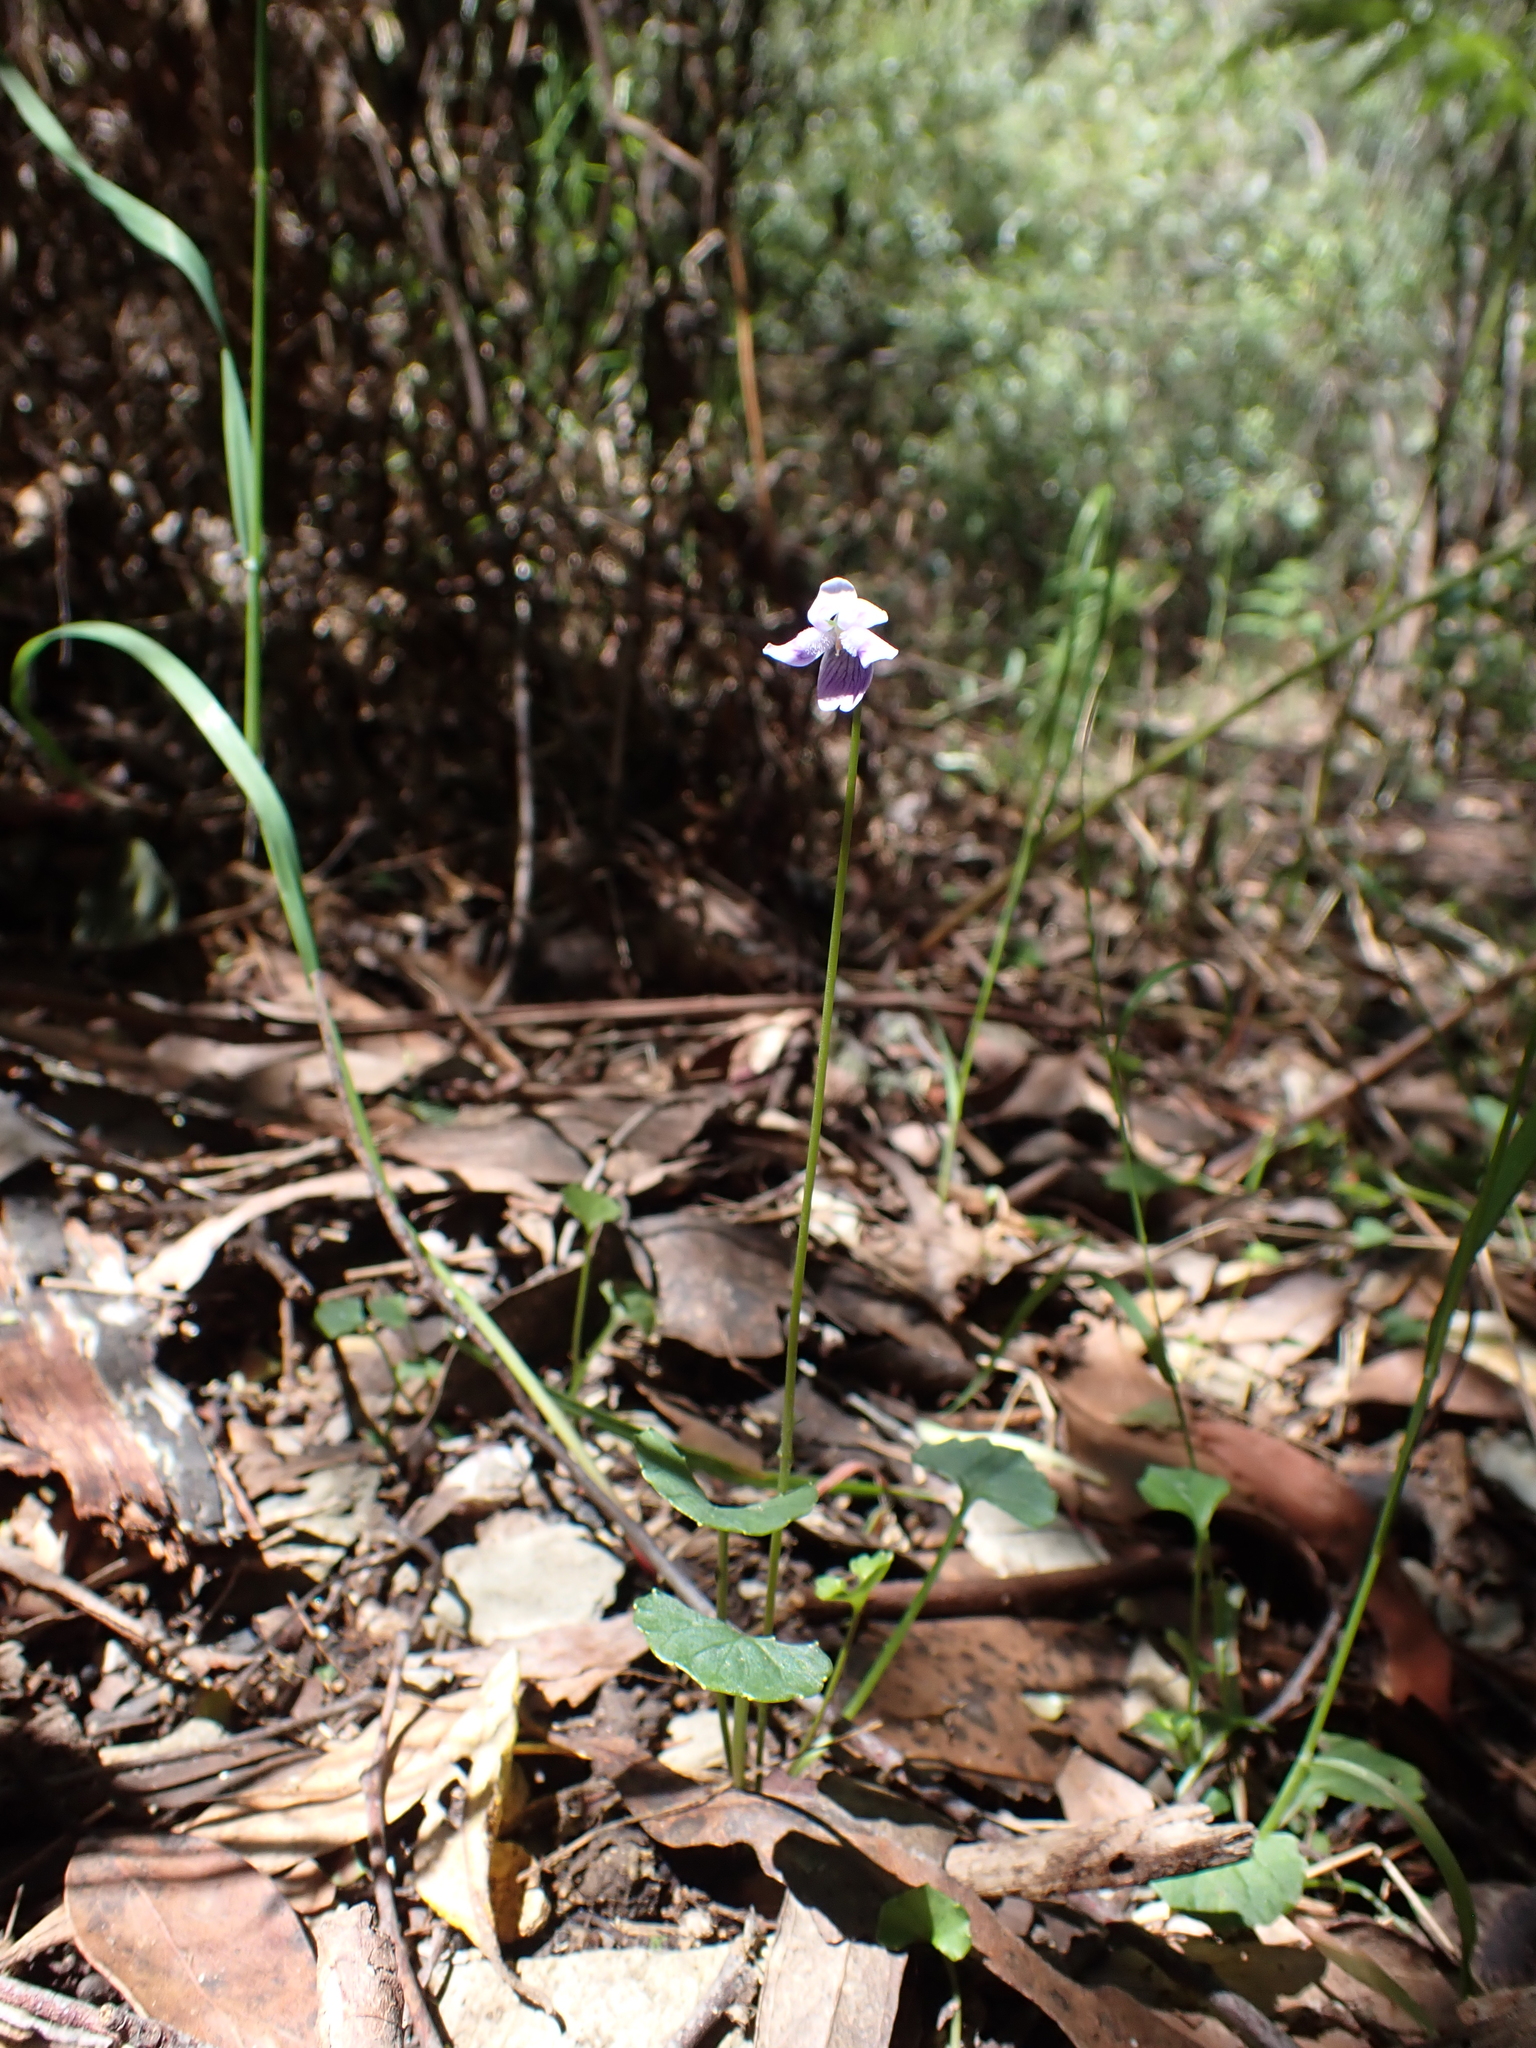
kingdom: Plantae
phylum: Tracheophyta
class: Magnoliopsida
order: Malpighiales
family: Violaceae
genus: Viola
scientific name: Viola hederacea
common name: Australian violet
